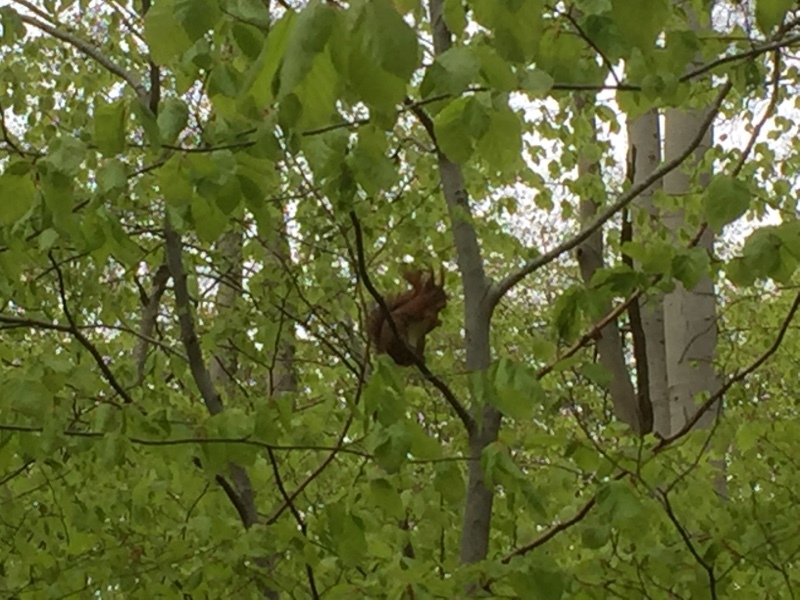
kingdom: Animalia
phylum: Chordata
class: Mammalia
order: Rodentia
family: Sciuridae
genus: Sciurus
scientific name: Sciurus vulgaris
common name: Eurasian red squirrel
